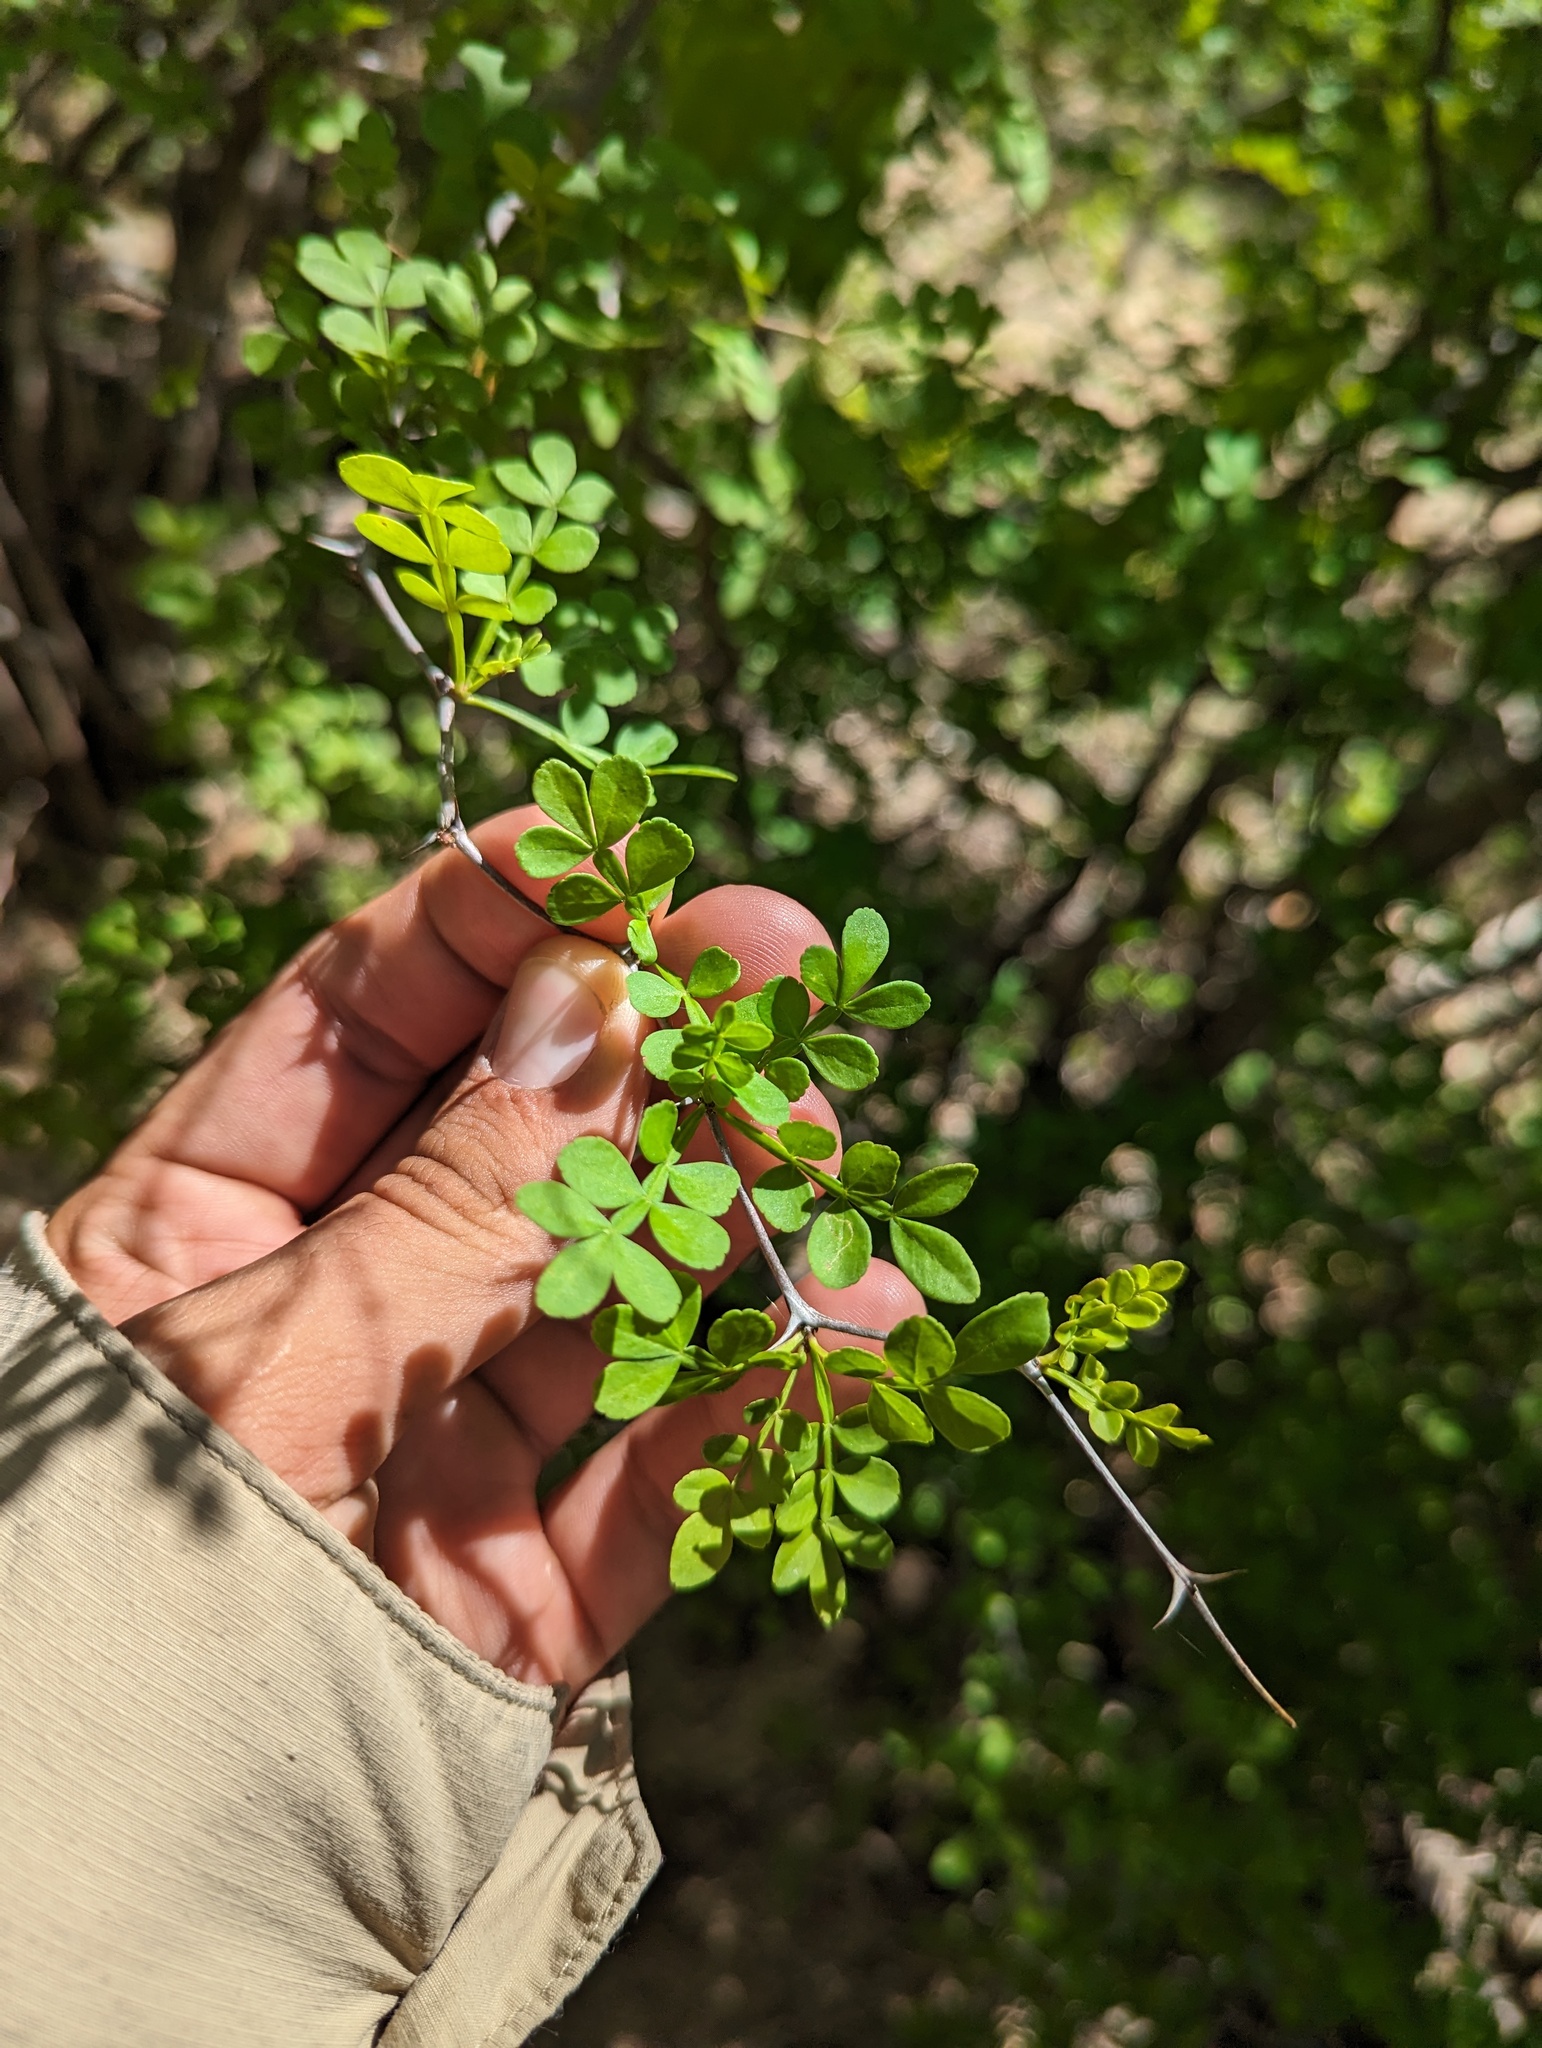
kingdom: Plantae
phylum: Tracheophyta
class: Magnoliopsida
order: Sapindales
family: Rutaceae
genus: Zanthoxylum
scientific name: Zanthoxylum fagara
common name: Lime prickly-ash
